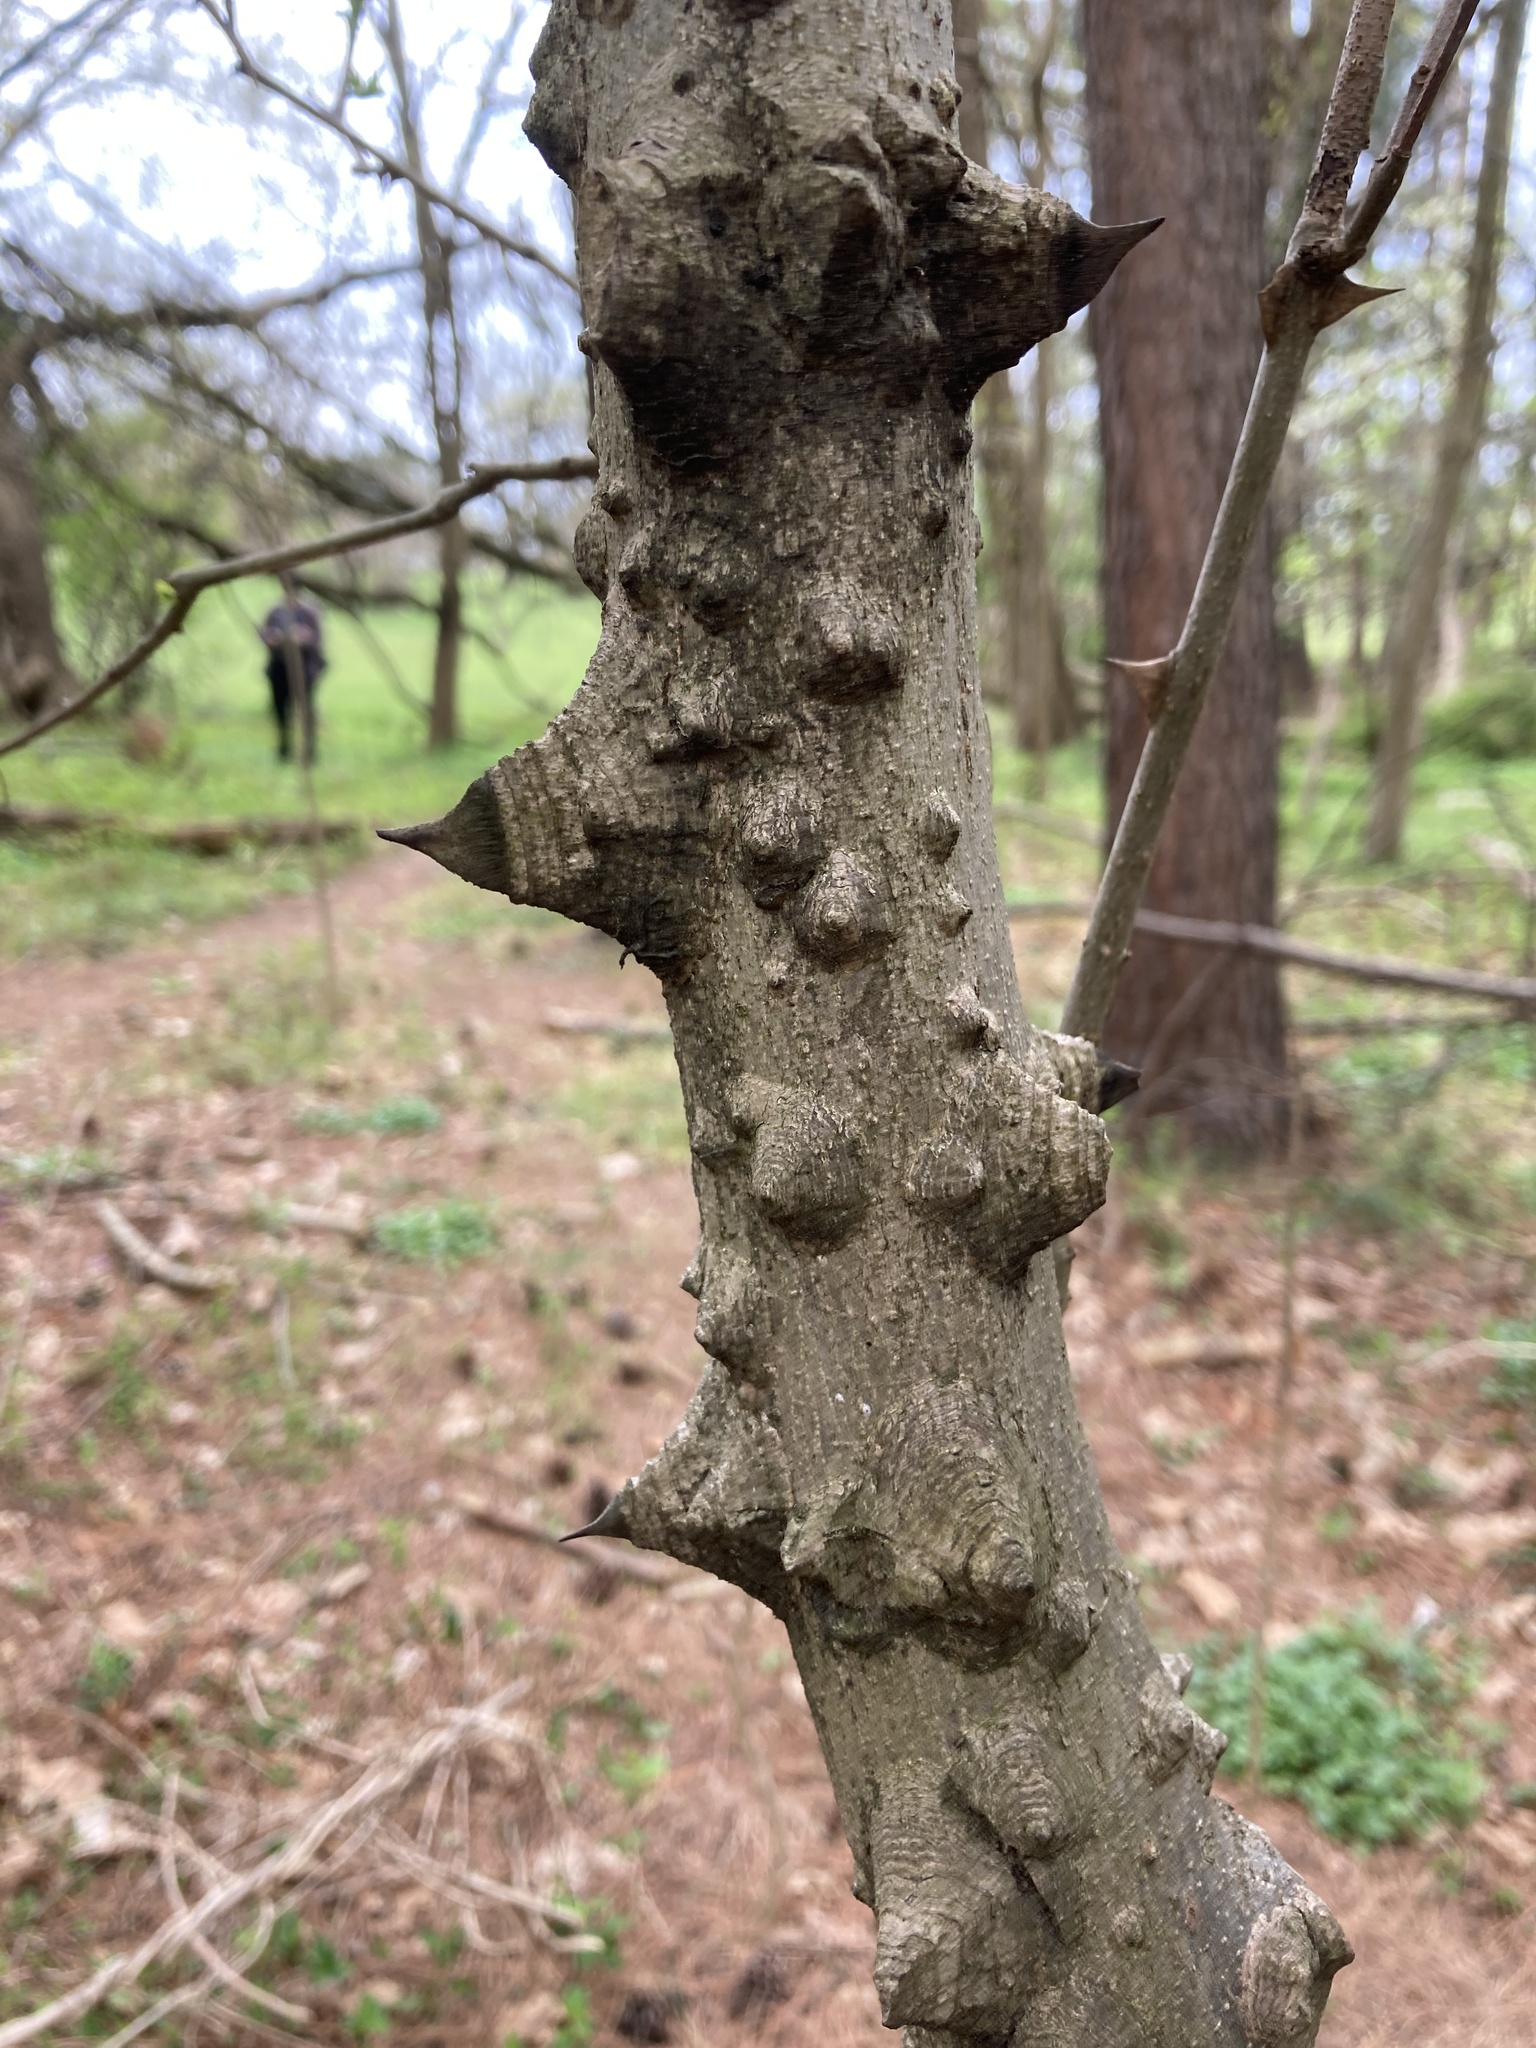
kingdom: Plantae
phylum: Tracheophyta
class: Magnoliopsida
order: Sapindales
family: Rutaceae
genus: Zanthoxylum
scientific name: Zanthoxylum simulans
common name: Chinese-pepper
